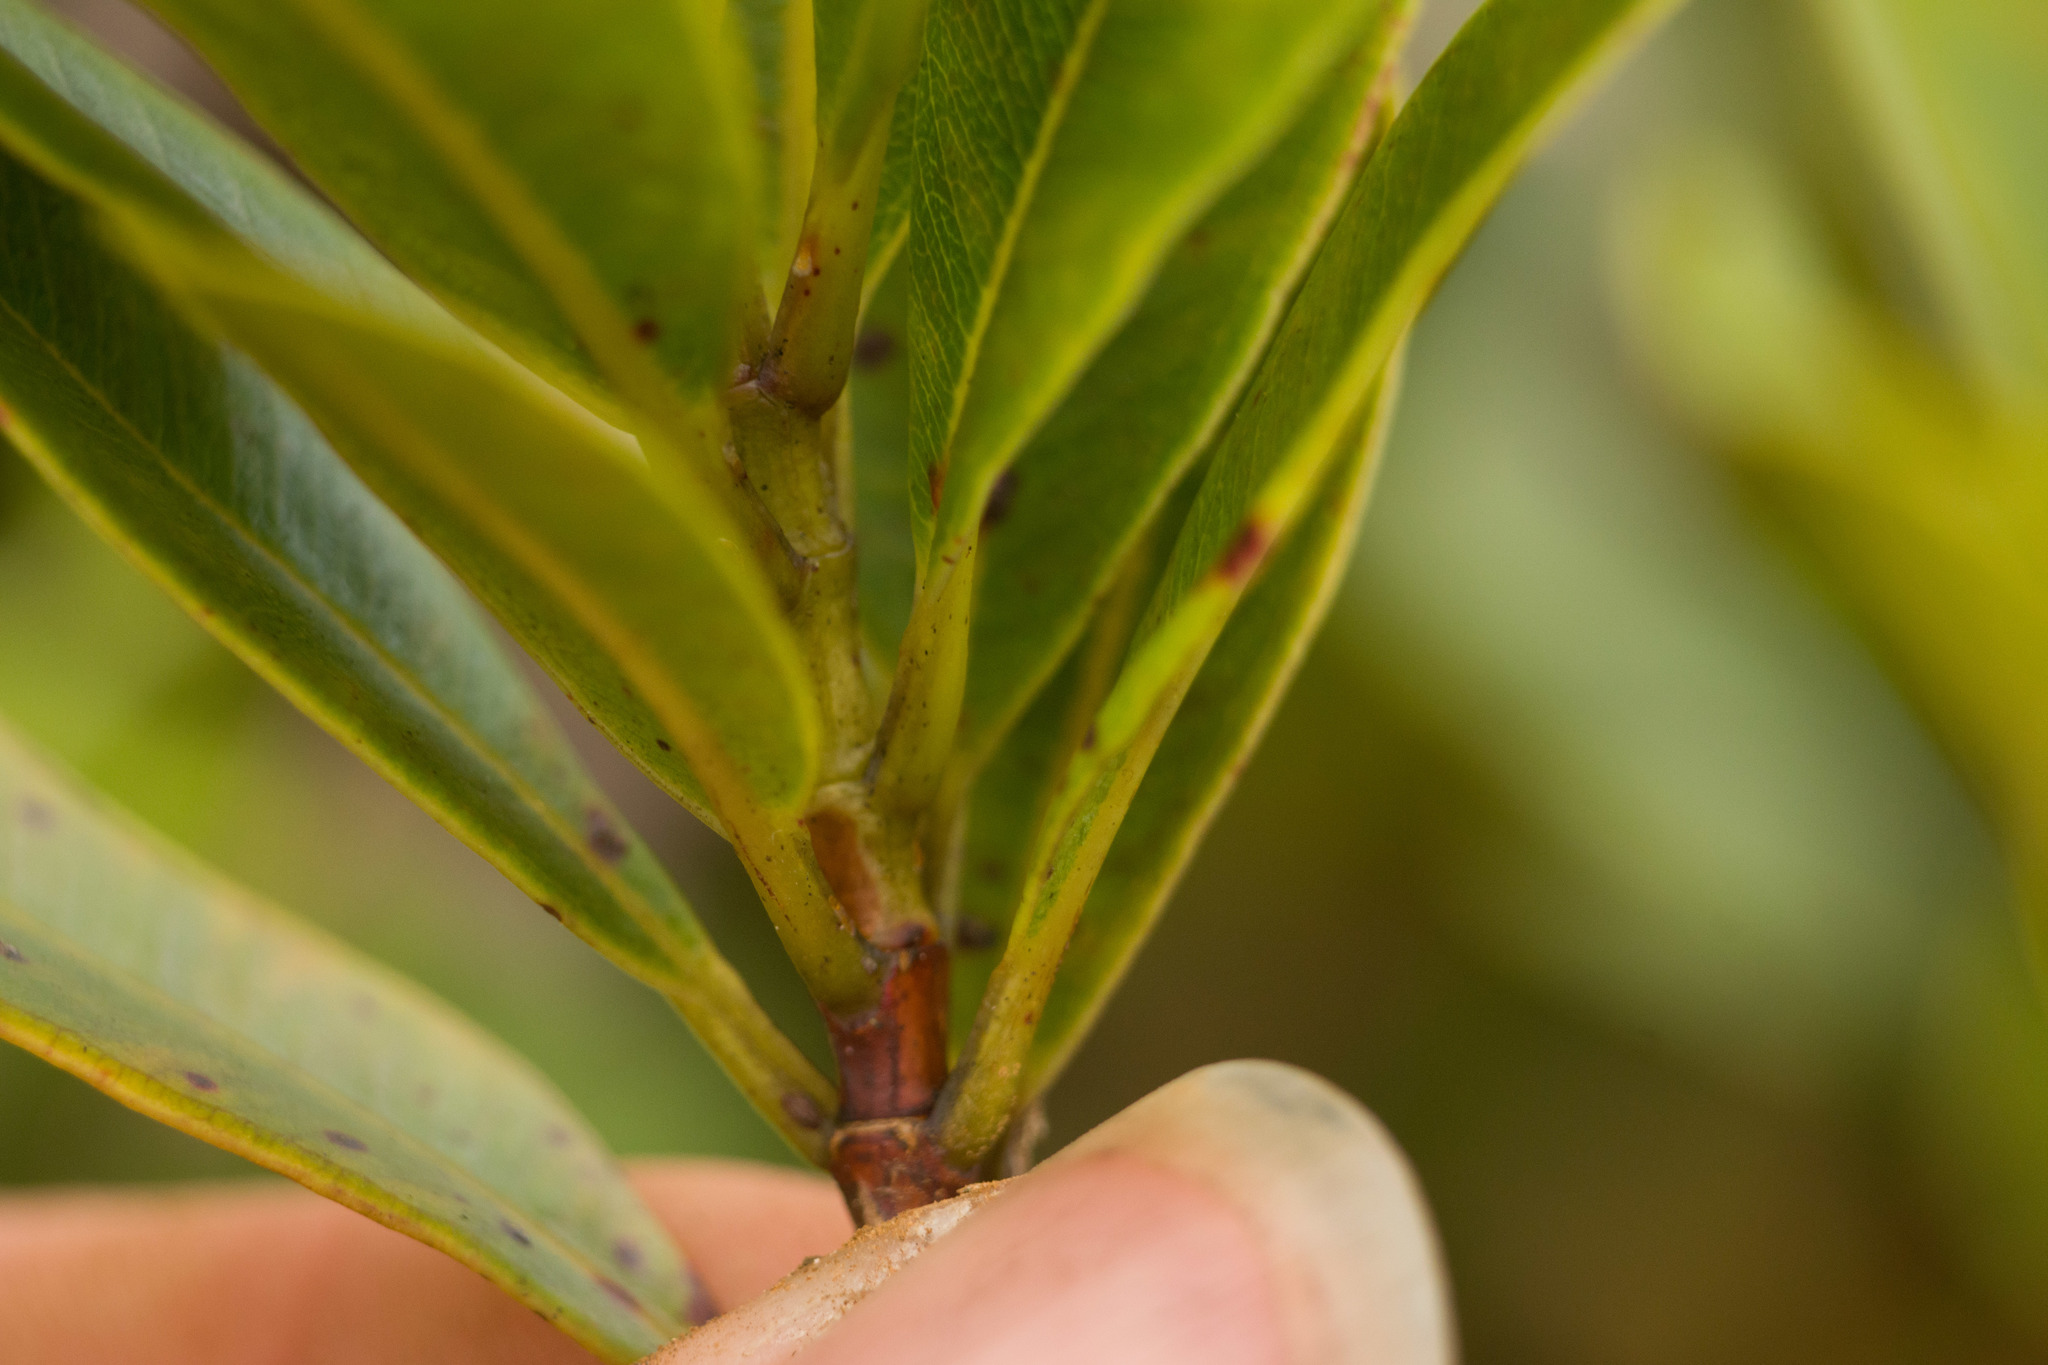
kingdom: Plantae
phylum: Tracheophyta
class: Magnoliopsida
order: Myrtales
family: Myrtaceae
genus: Syzygium
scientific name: Syzygium sandwicense
